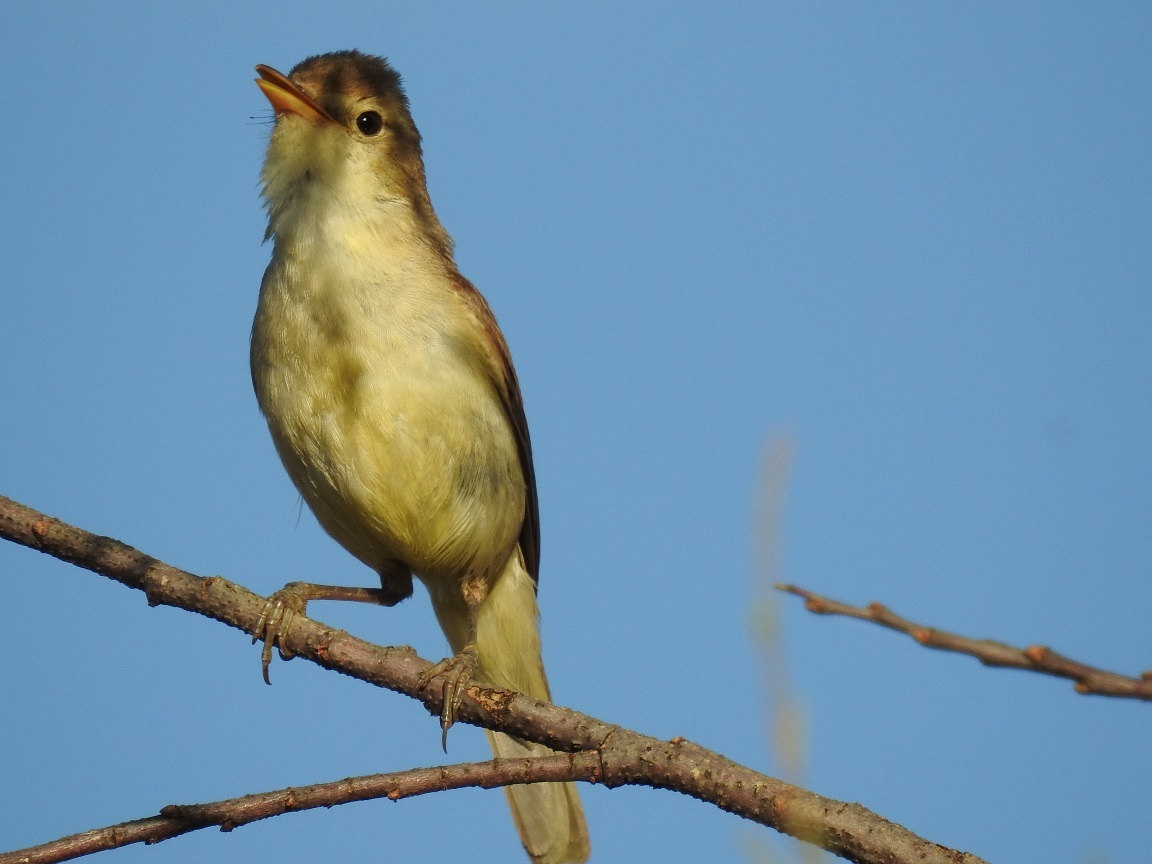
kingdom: Animalia
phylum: Chordata
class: Aves
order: Passeriformes
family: Acrocephalidae
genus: Hippolais
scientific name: Hippolais polyglotta
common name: Melodious warbler
